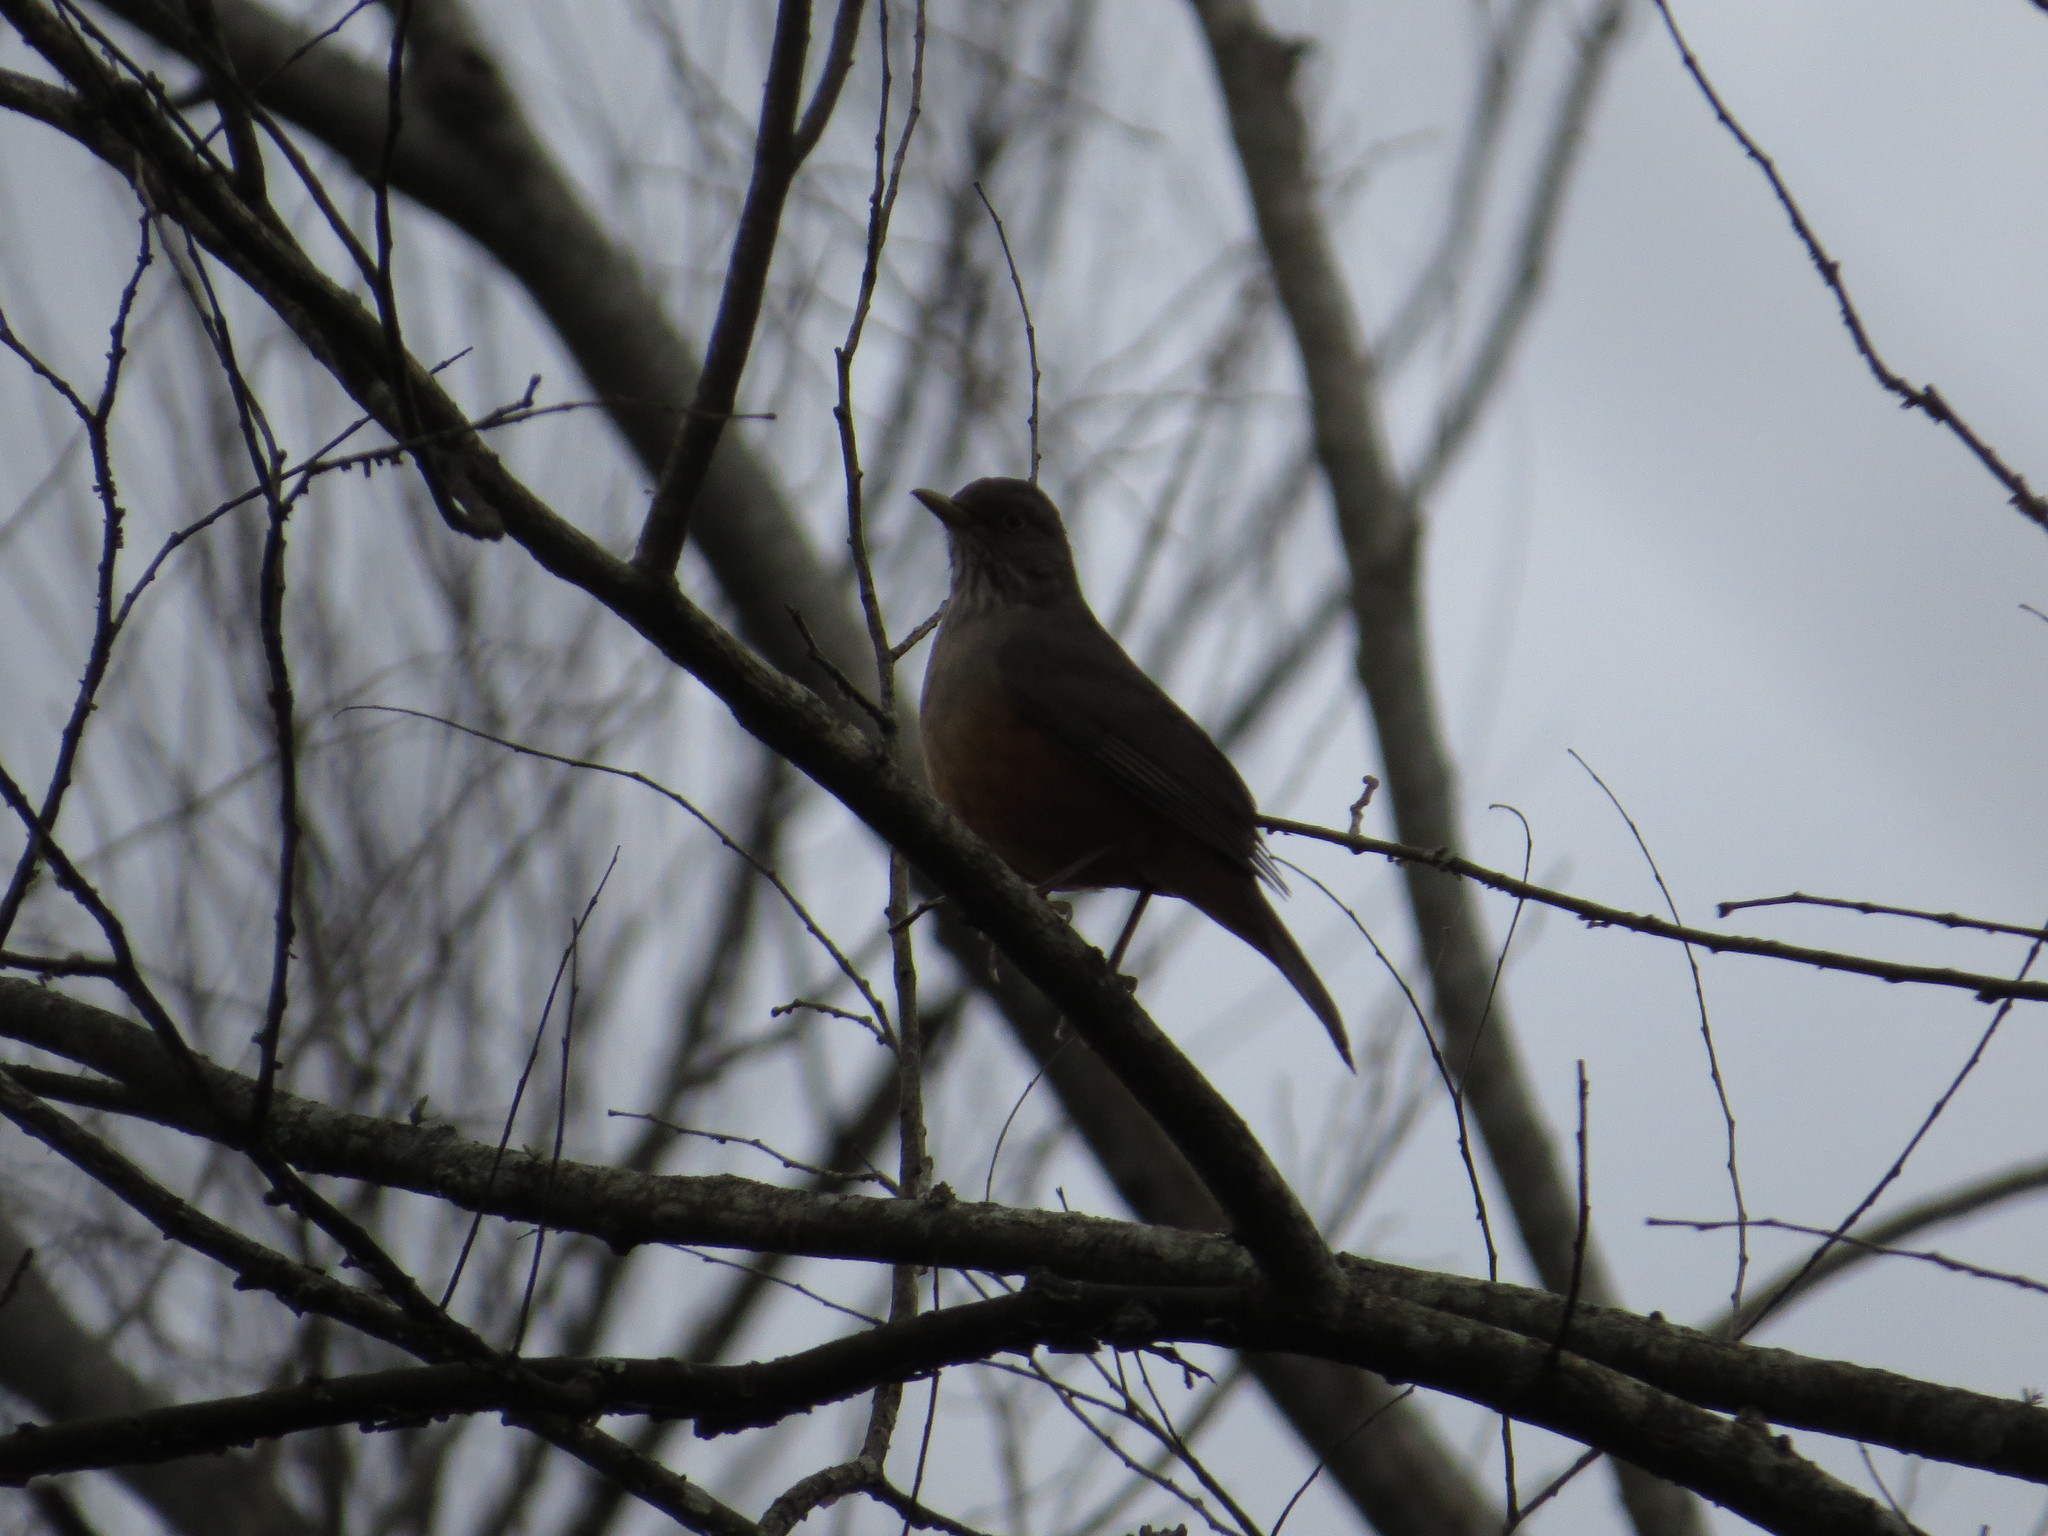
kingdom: Animalia
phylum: Chordata
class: Aves
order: Passeriformes
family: Turdidae
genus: Turdus
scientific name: Turdus rufiventris
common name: Rufous-bellied thrush
